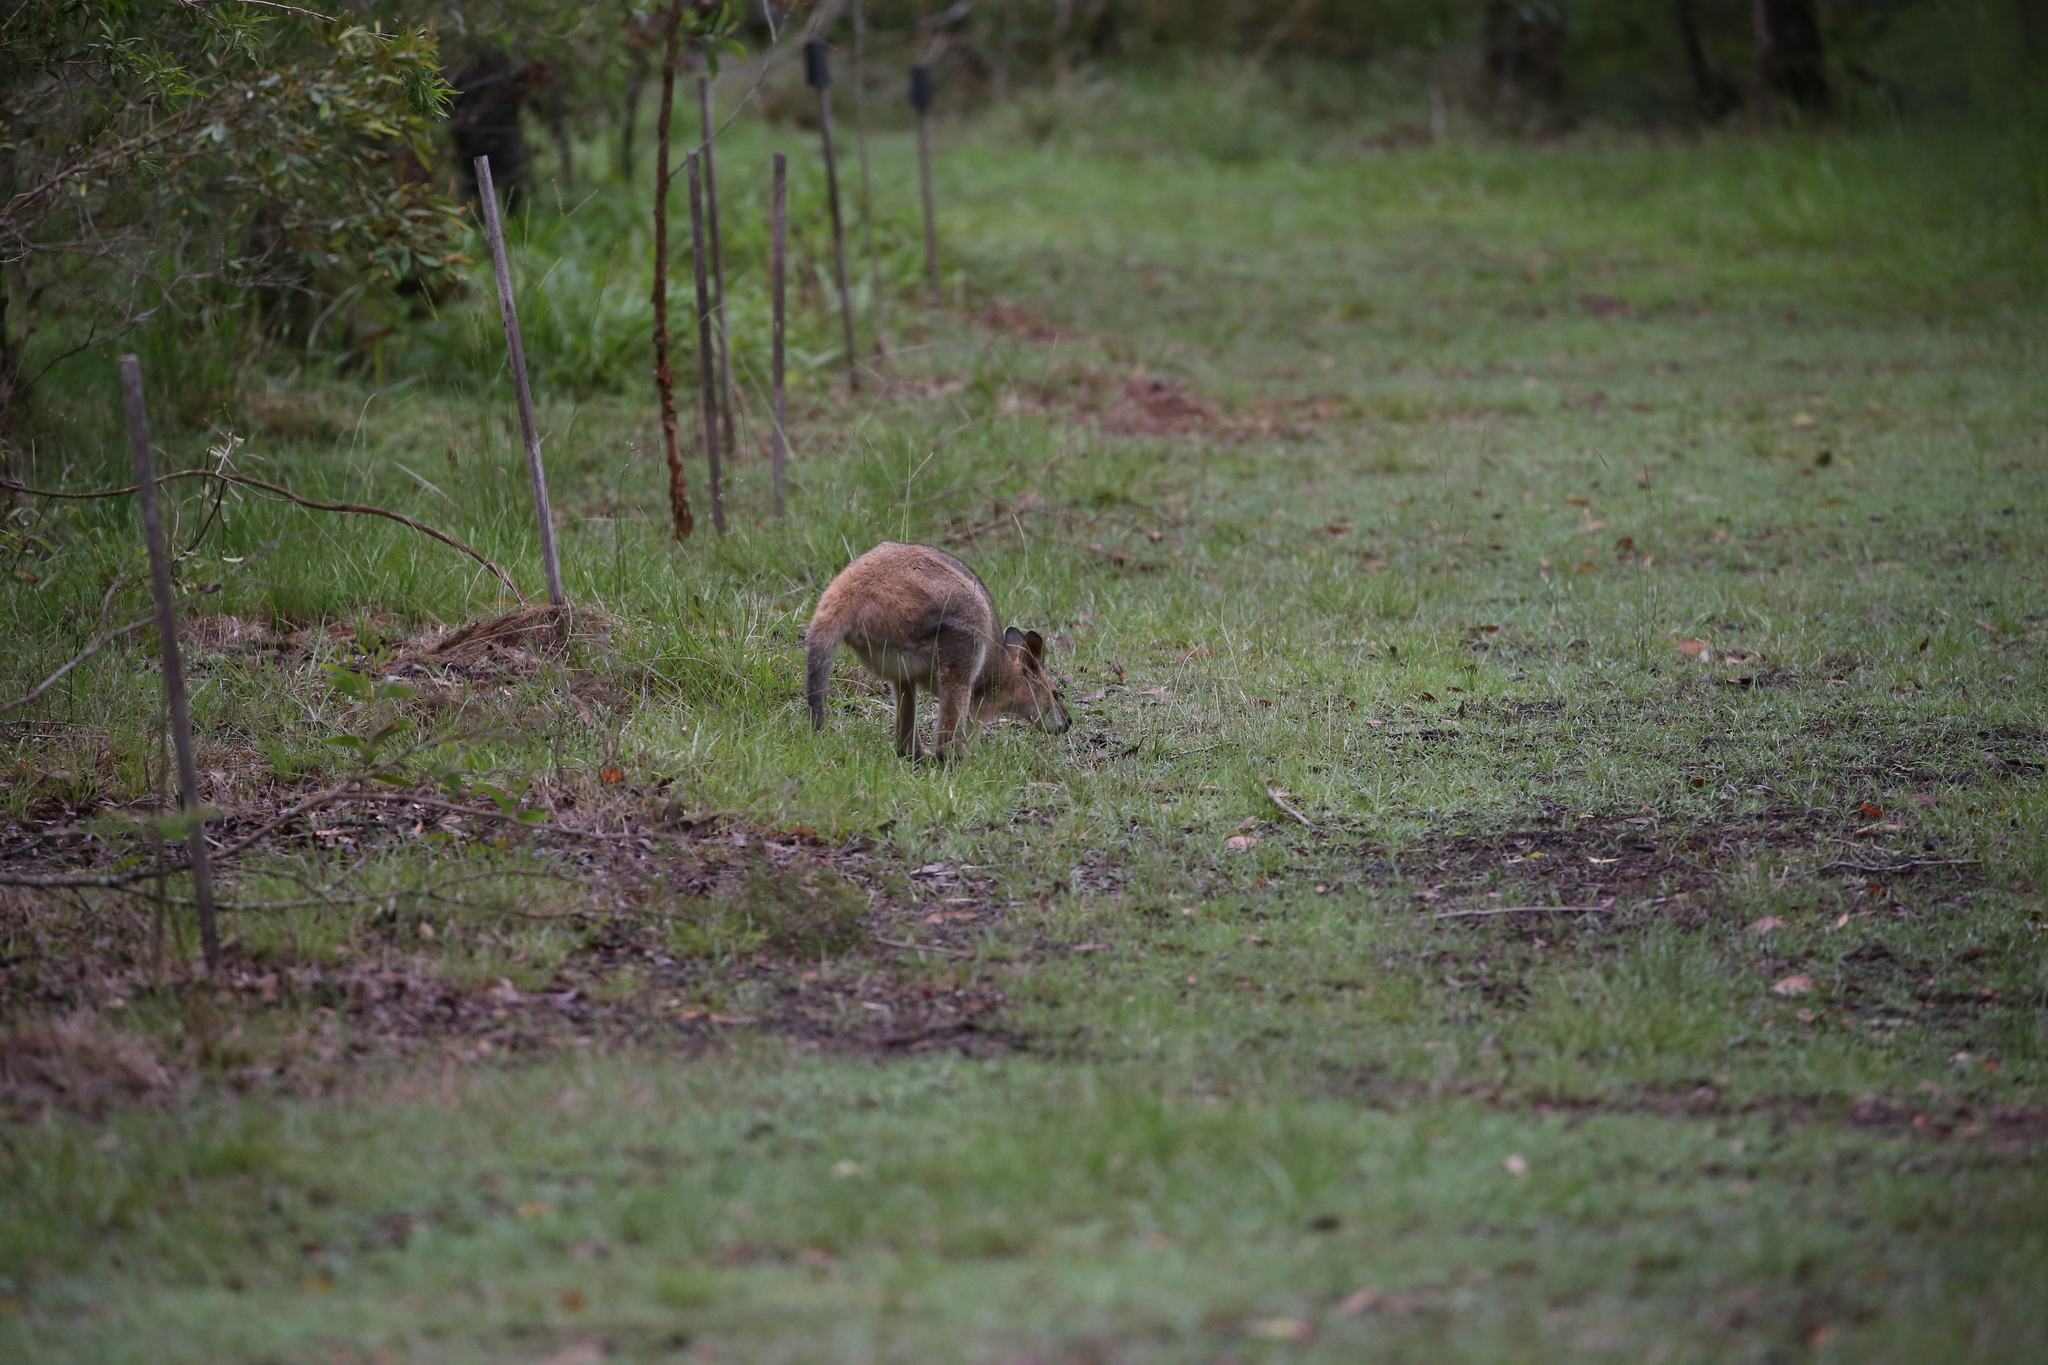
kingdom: Animalia
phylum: Chordata
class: Mammalia
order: Diprotodontia
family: Macropodidae
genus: Notamacropus
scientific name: Notamacropus rufogriseus
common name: Red-necked wallaby
